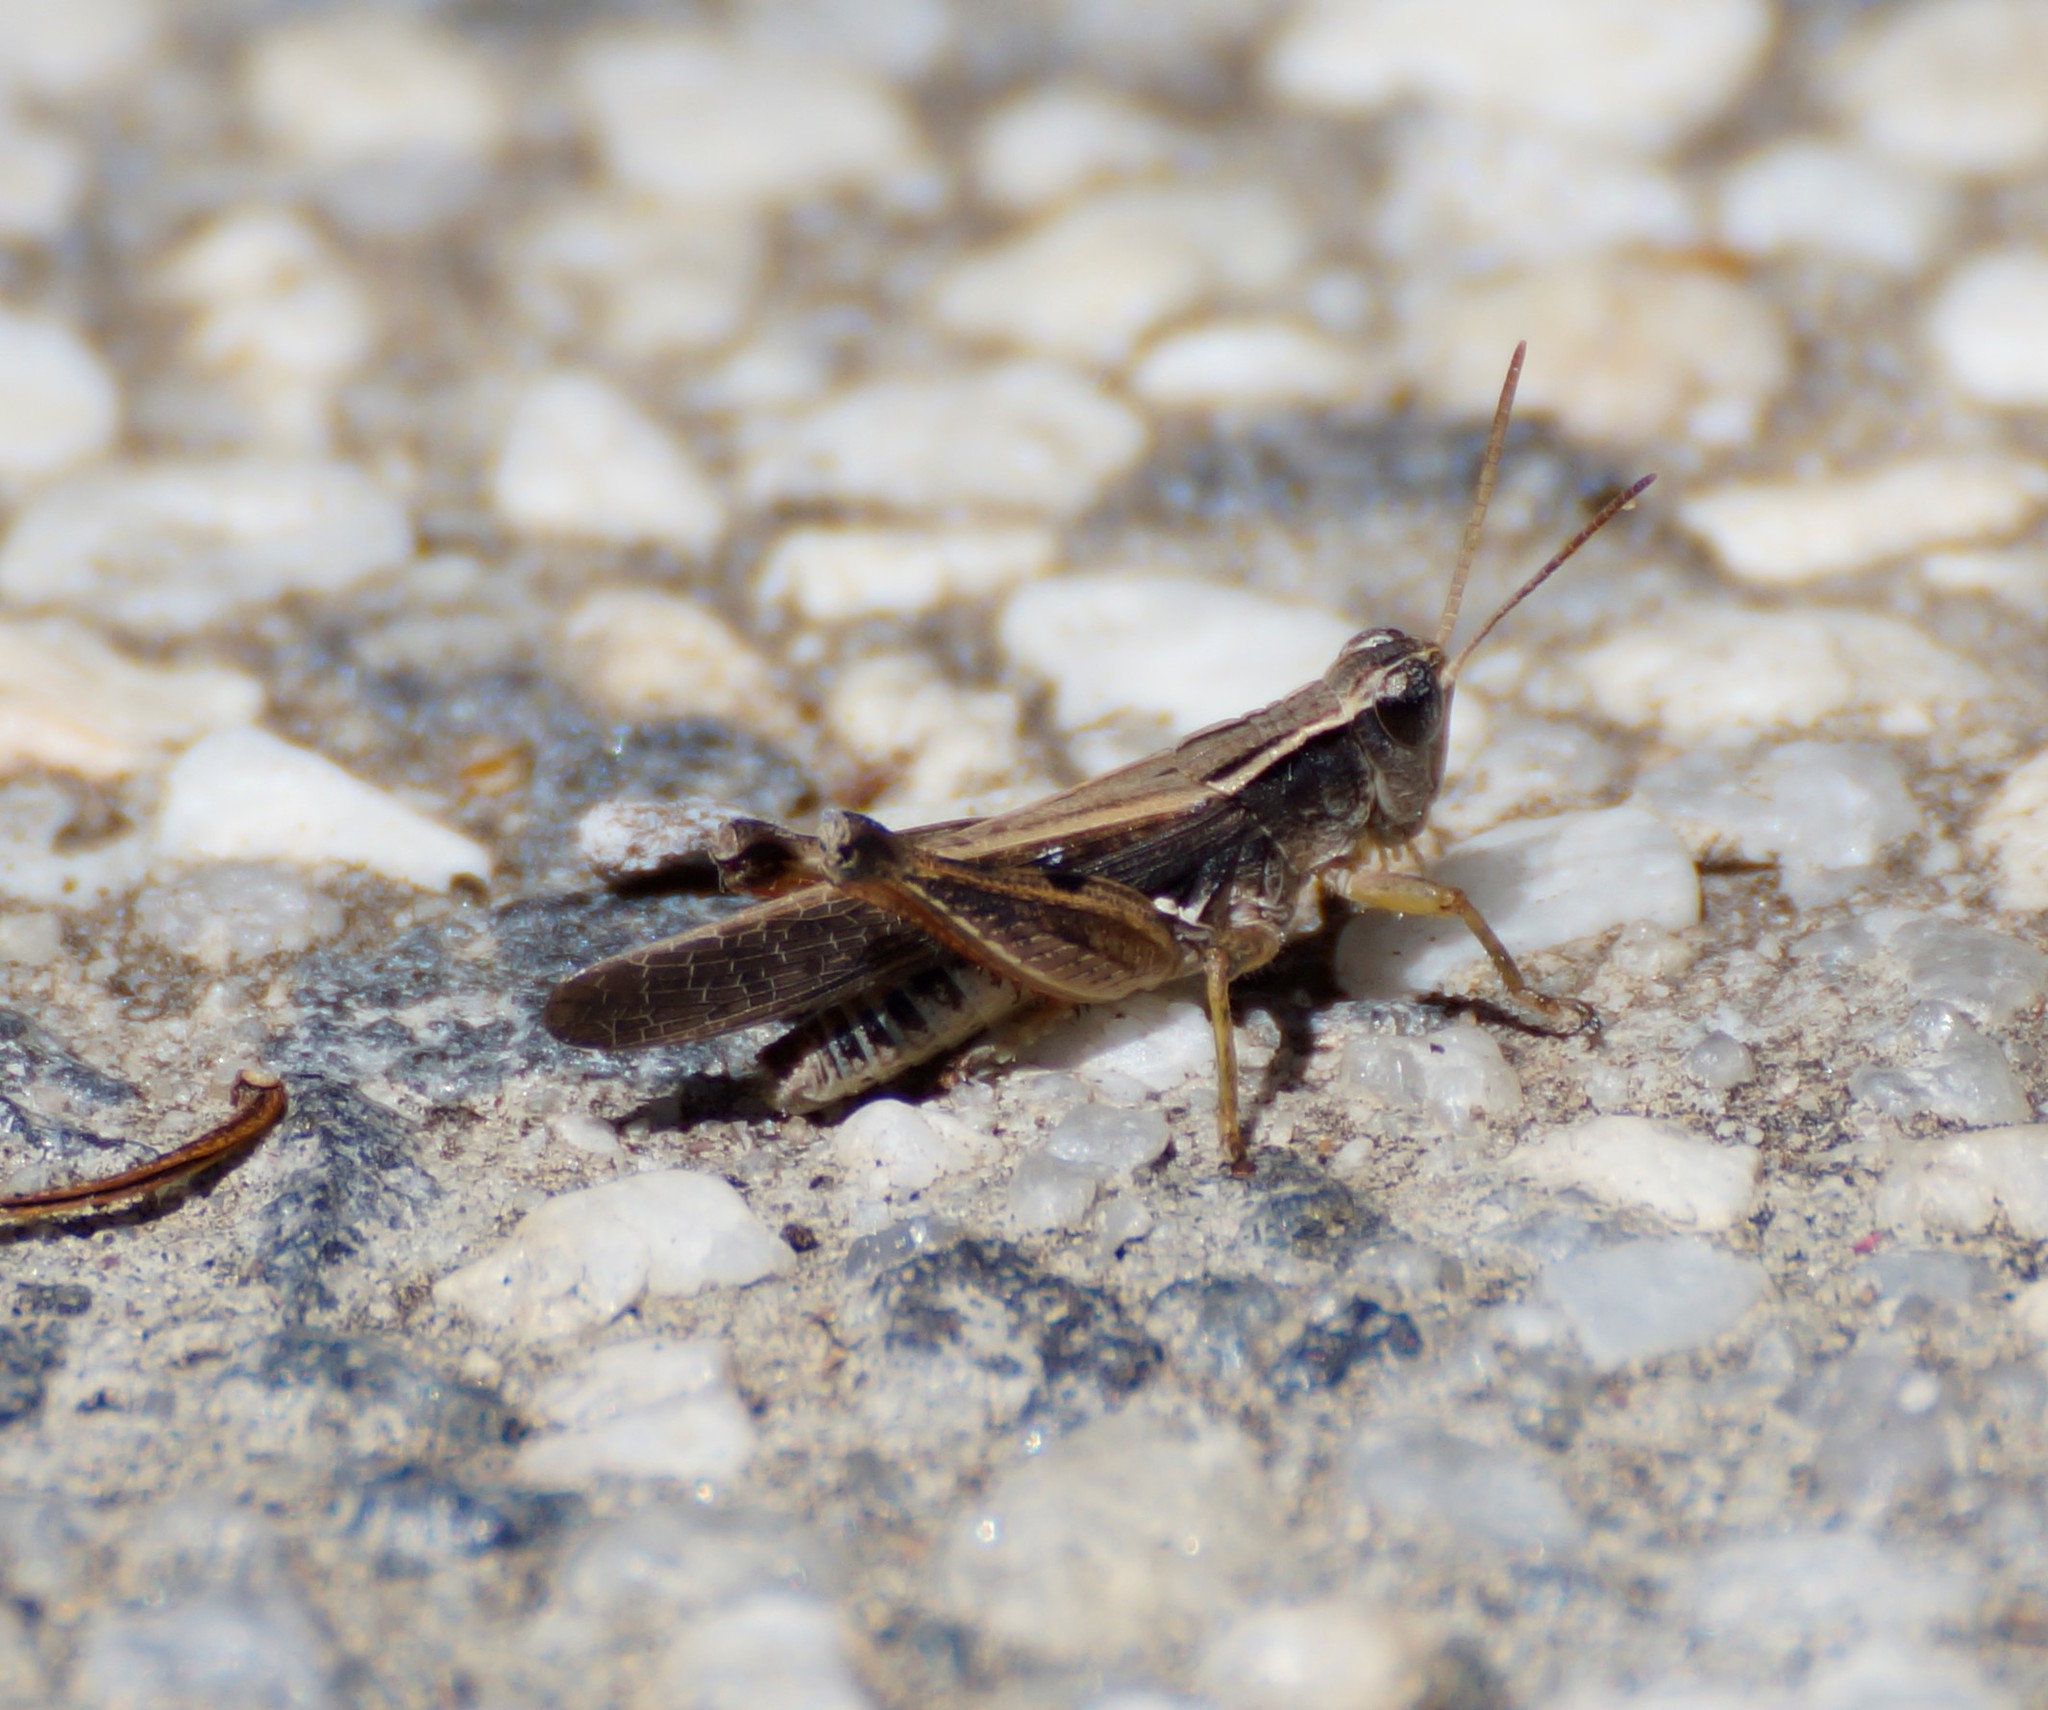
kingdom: Animalia
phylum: Arthropoda
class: Insecta
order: Orthoptera
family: Acrididae
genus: Phaulacridium
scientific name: Phaulacridium vittatum
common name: Wingless grasshopper
